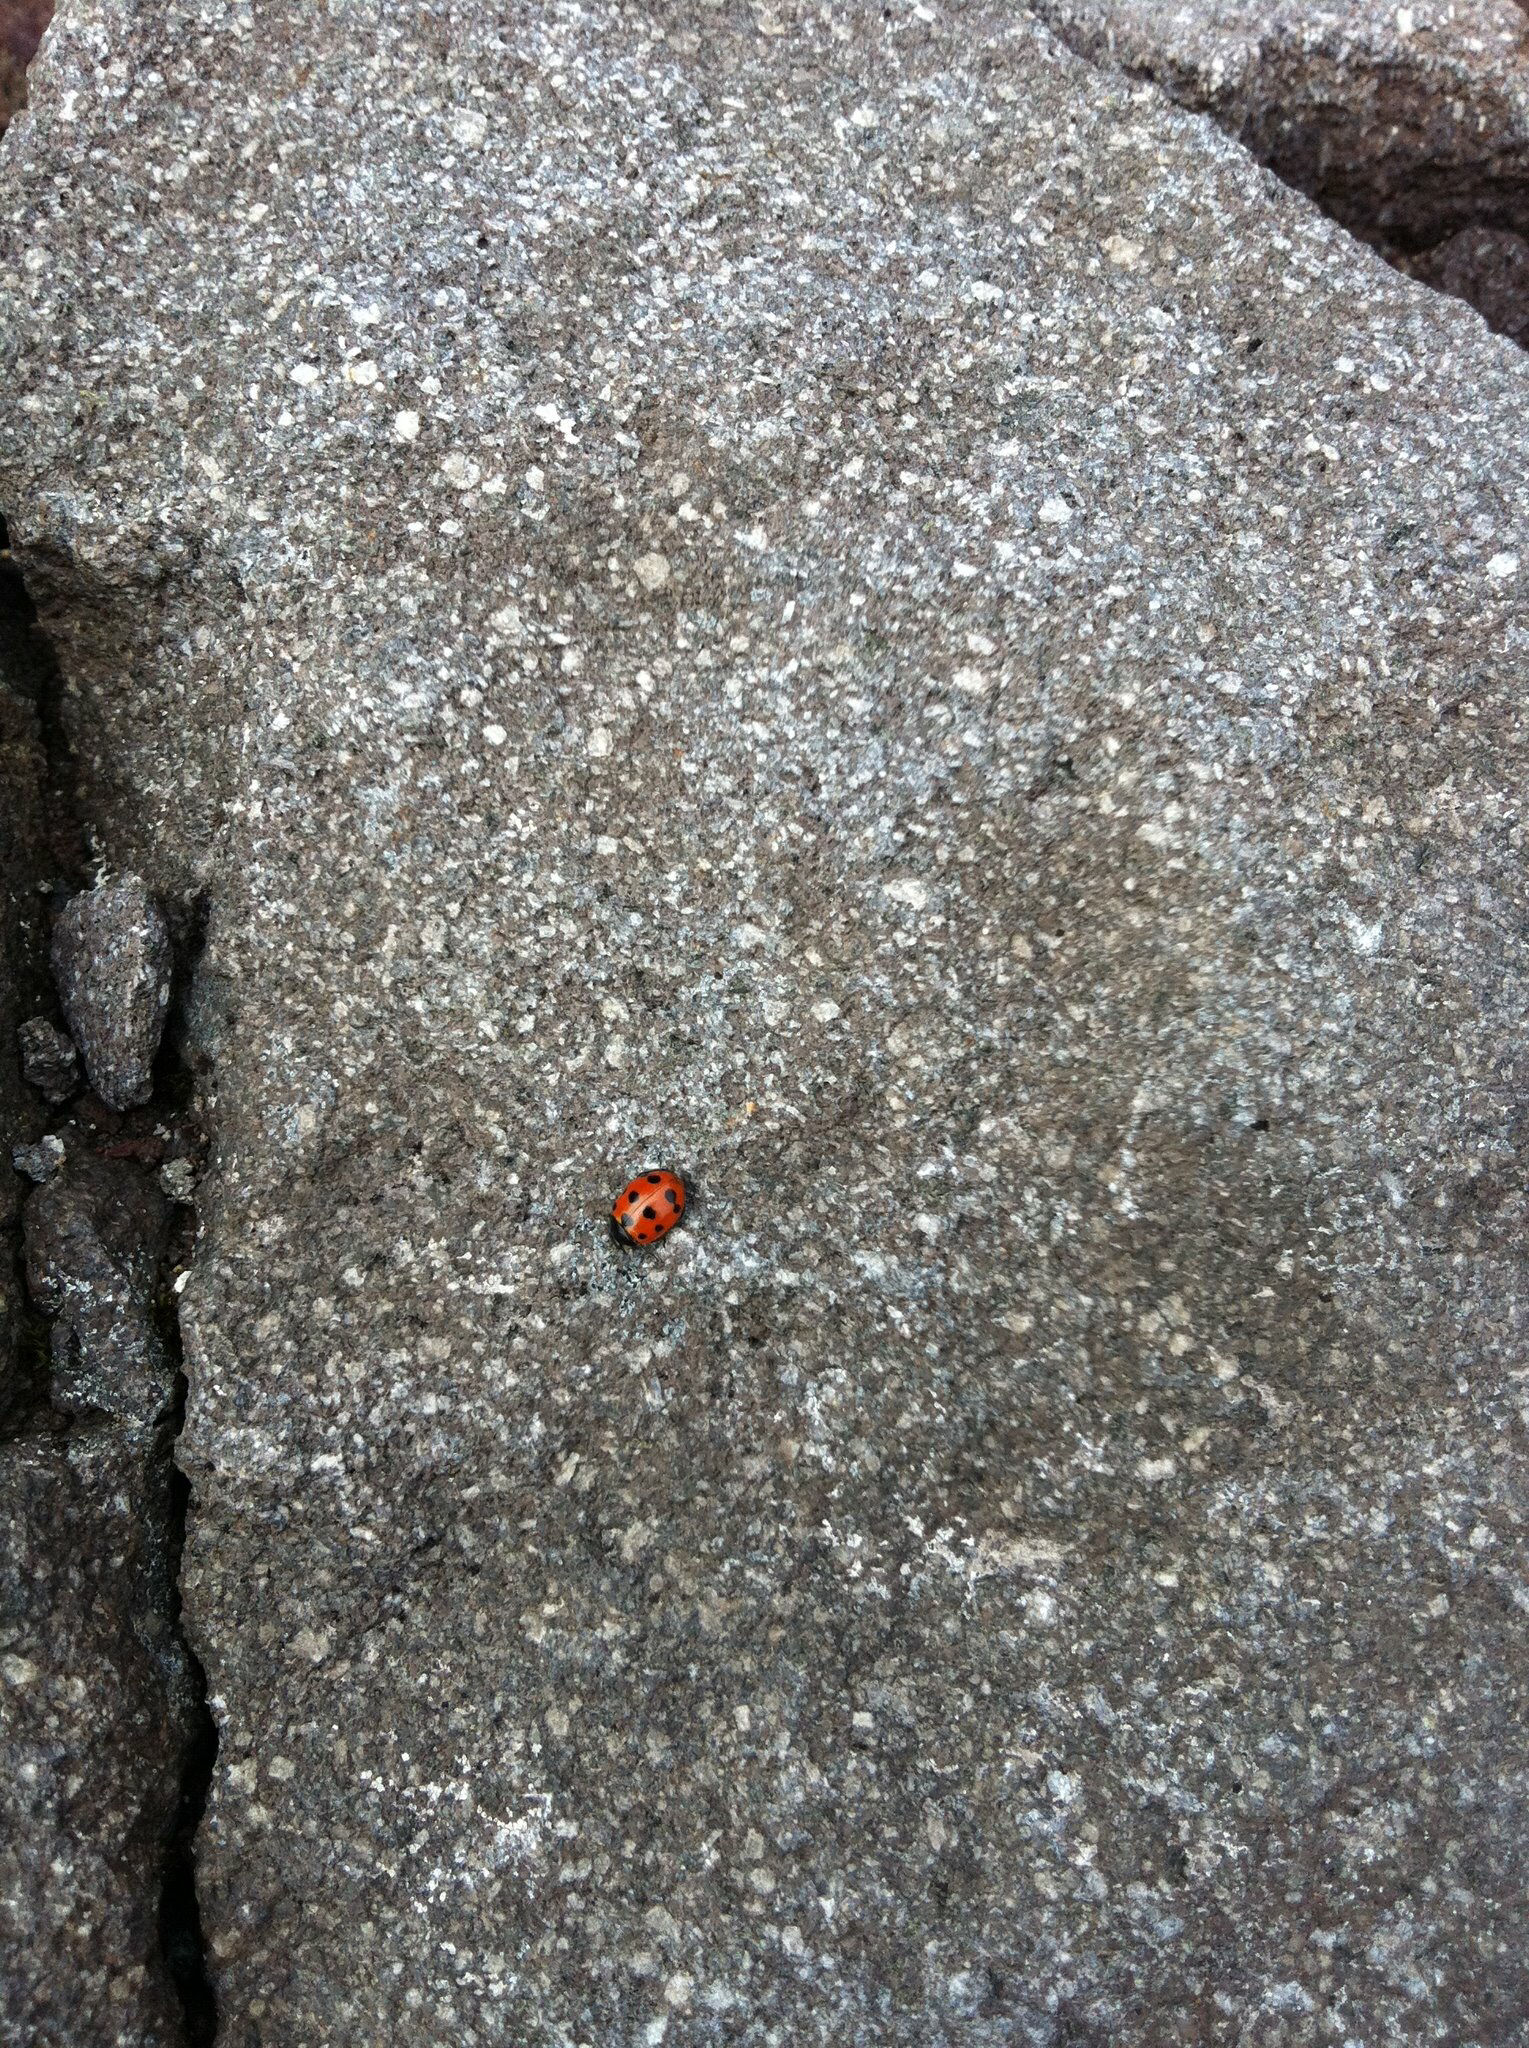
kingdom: Animalia
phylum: Arthropoda
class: Insecta
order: Coleoptera
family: Coccinellidae
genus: Coccinella
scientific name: Coccinella undecimpunctata
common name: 11-spot ladybird
